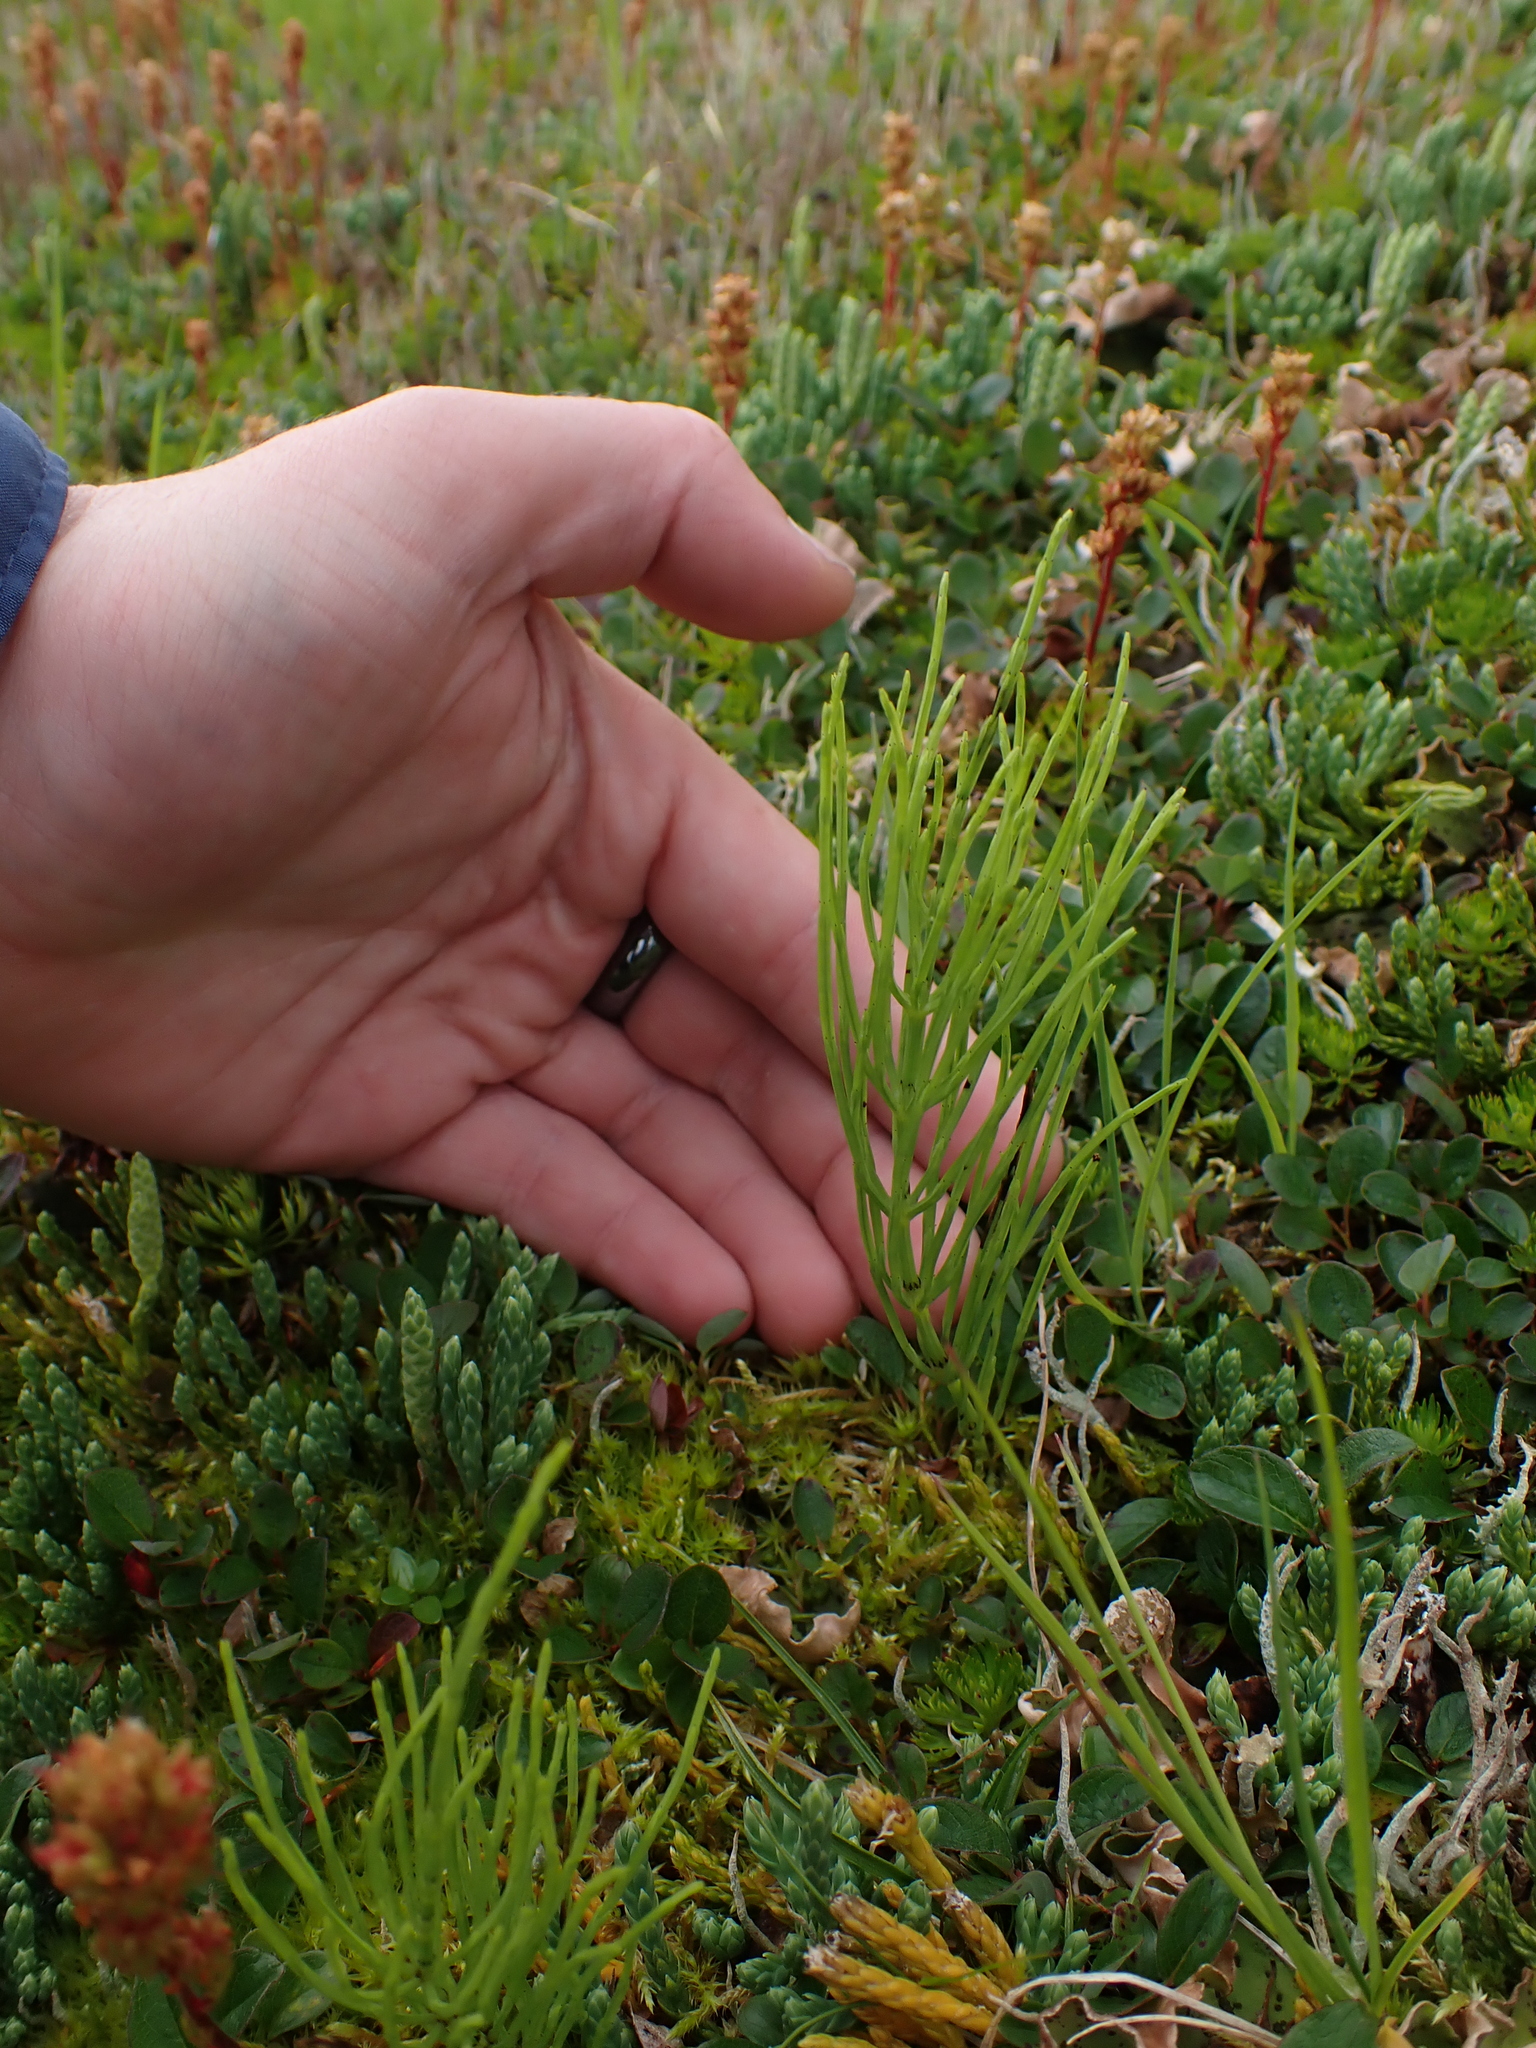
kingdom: Plantae
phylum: Tracheophyta
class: Polypodiopsida
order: Equisetales
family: Equisetaceae
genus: Equisetum
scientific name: Equisetum arvense
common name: Field horsetail
